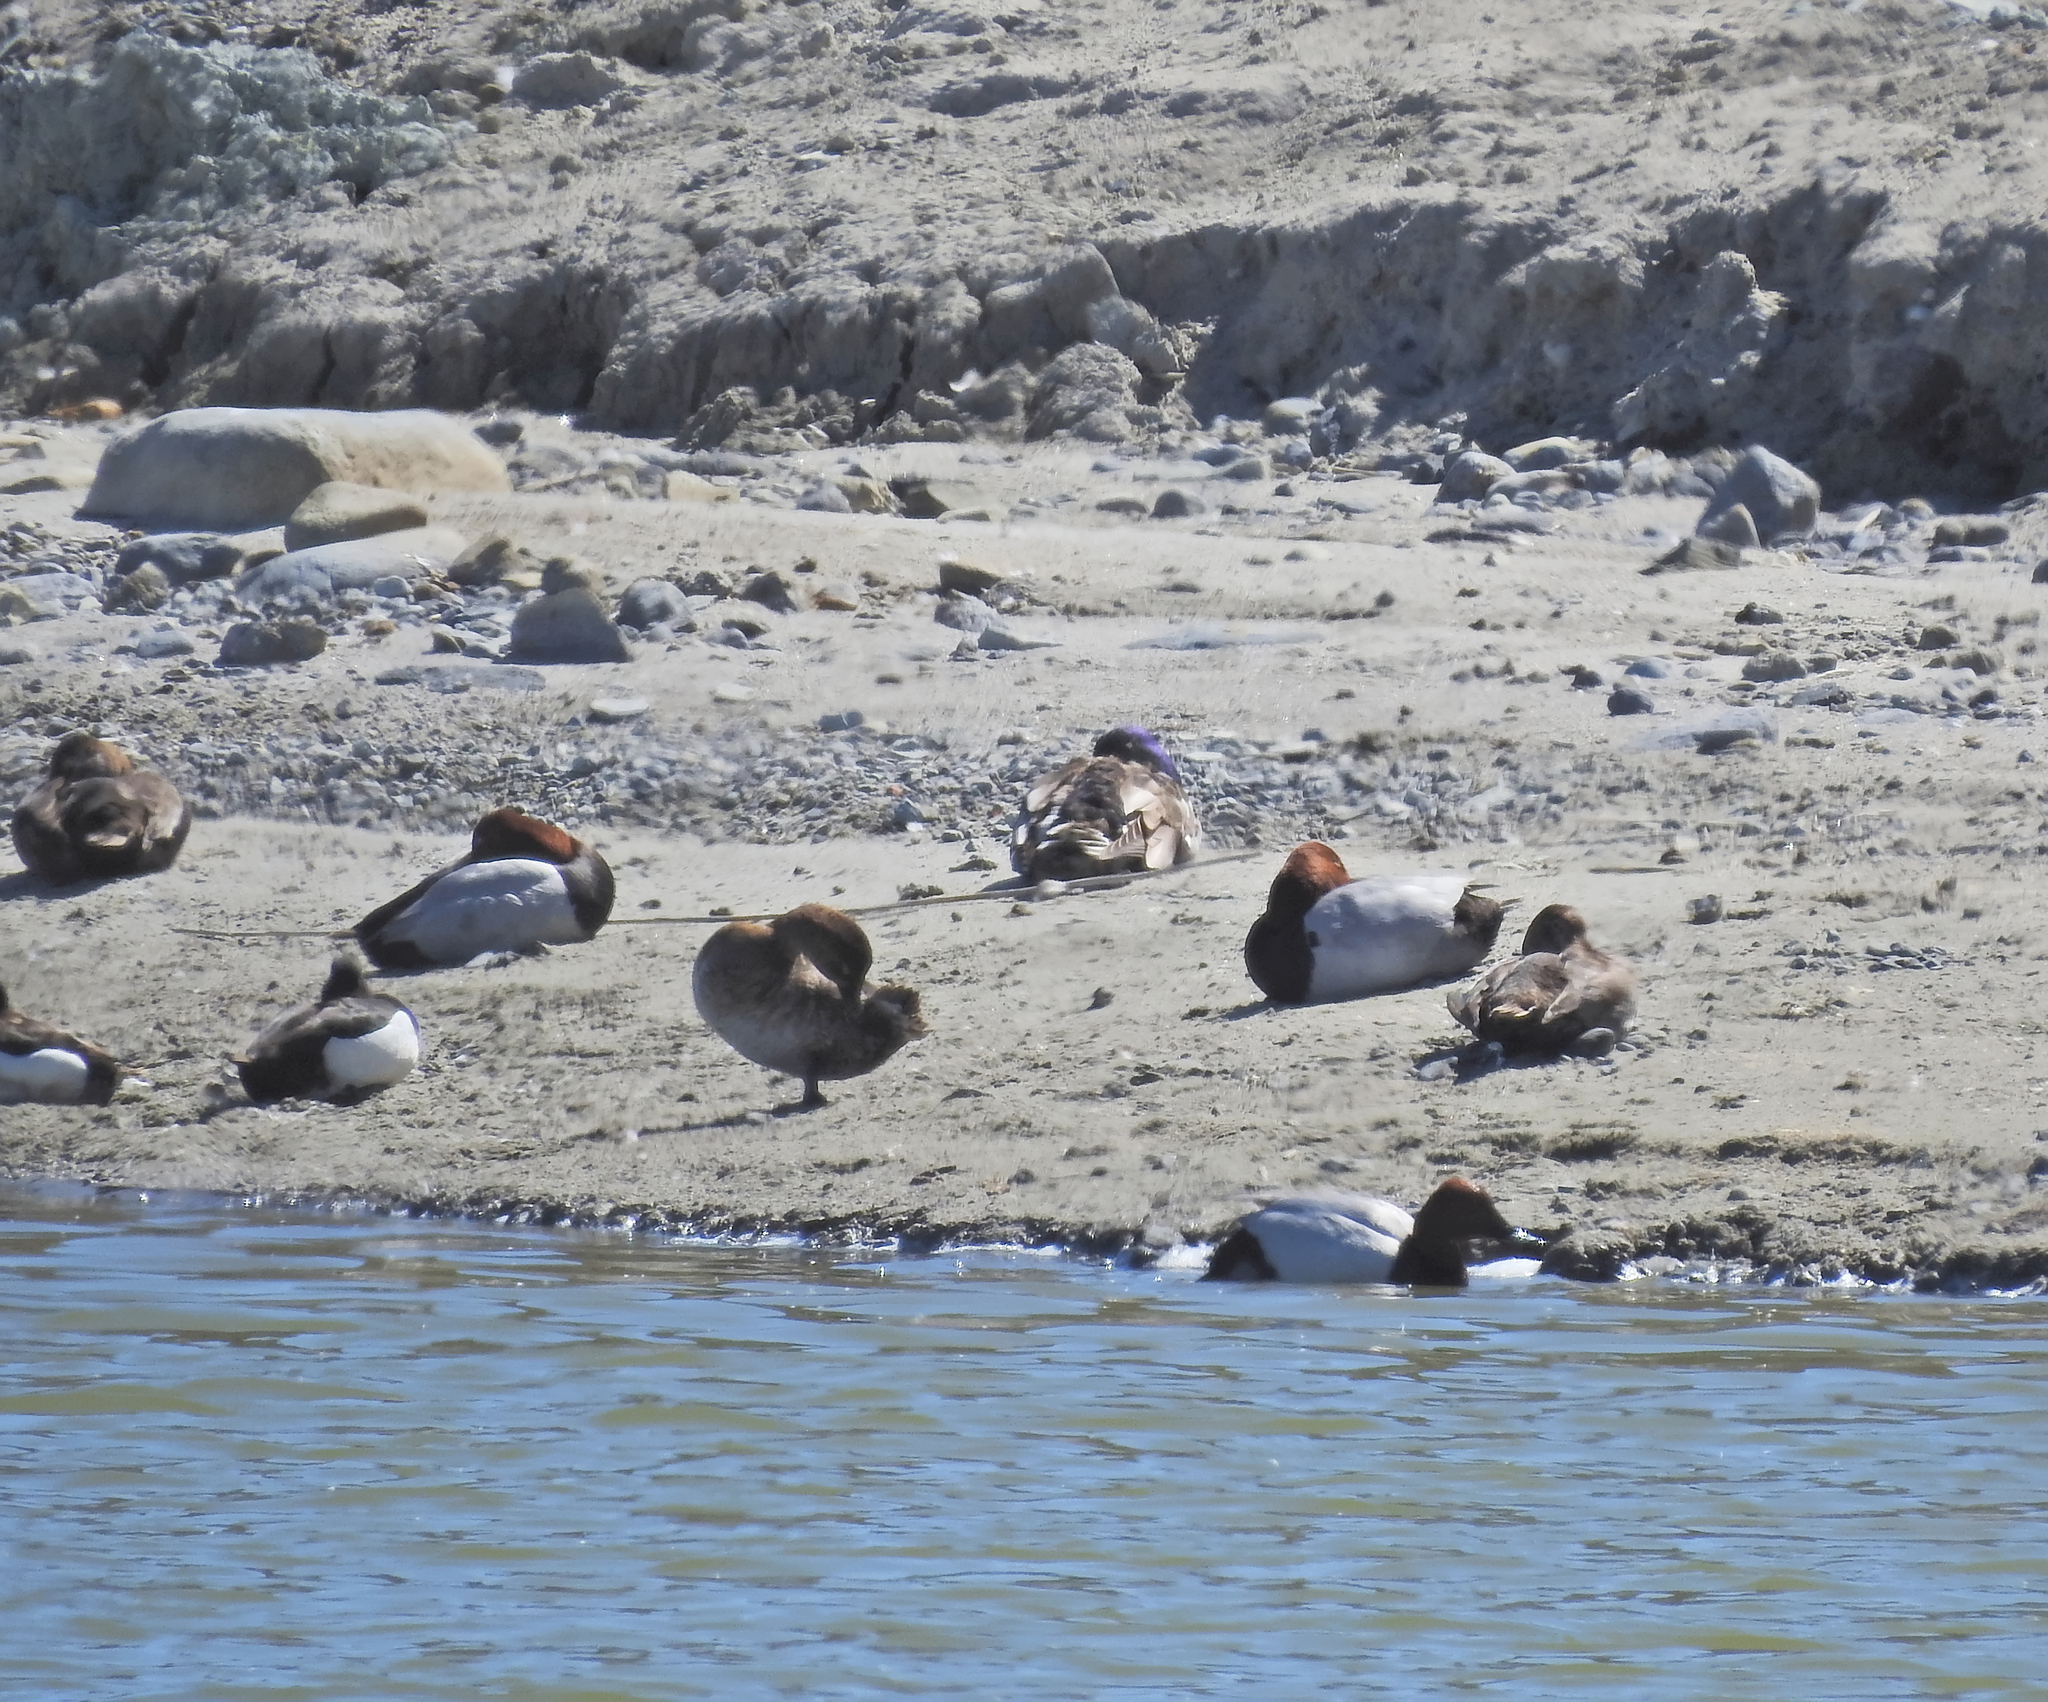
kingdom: Animalia
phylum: Chordata
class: Aves
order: Anseriformes
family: Anatidae
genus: Aythya
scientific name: Aythya ferina
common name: Common pochard
